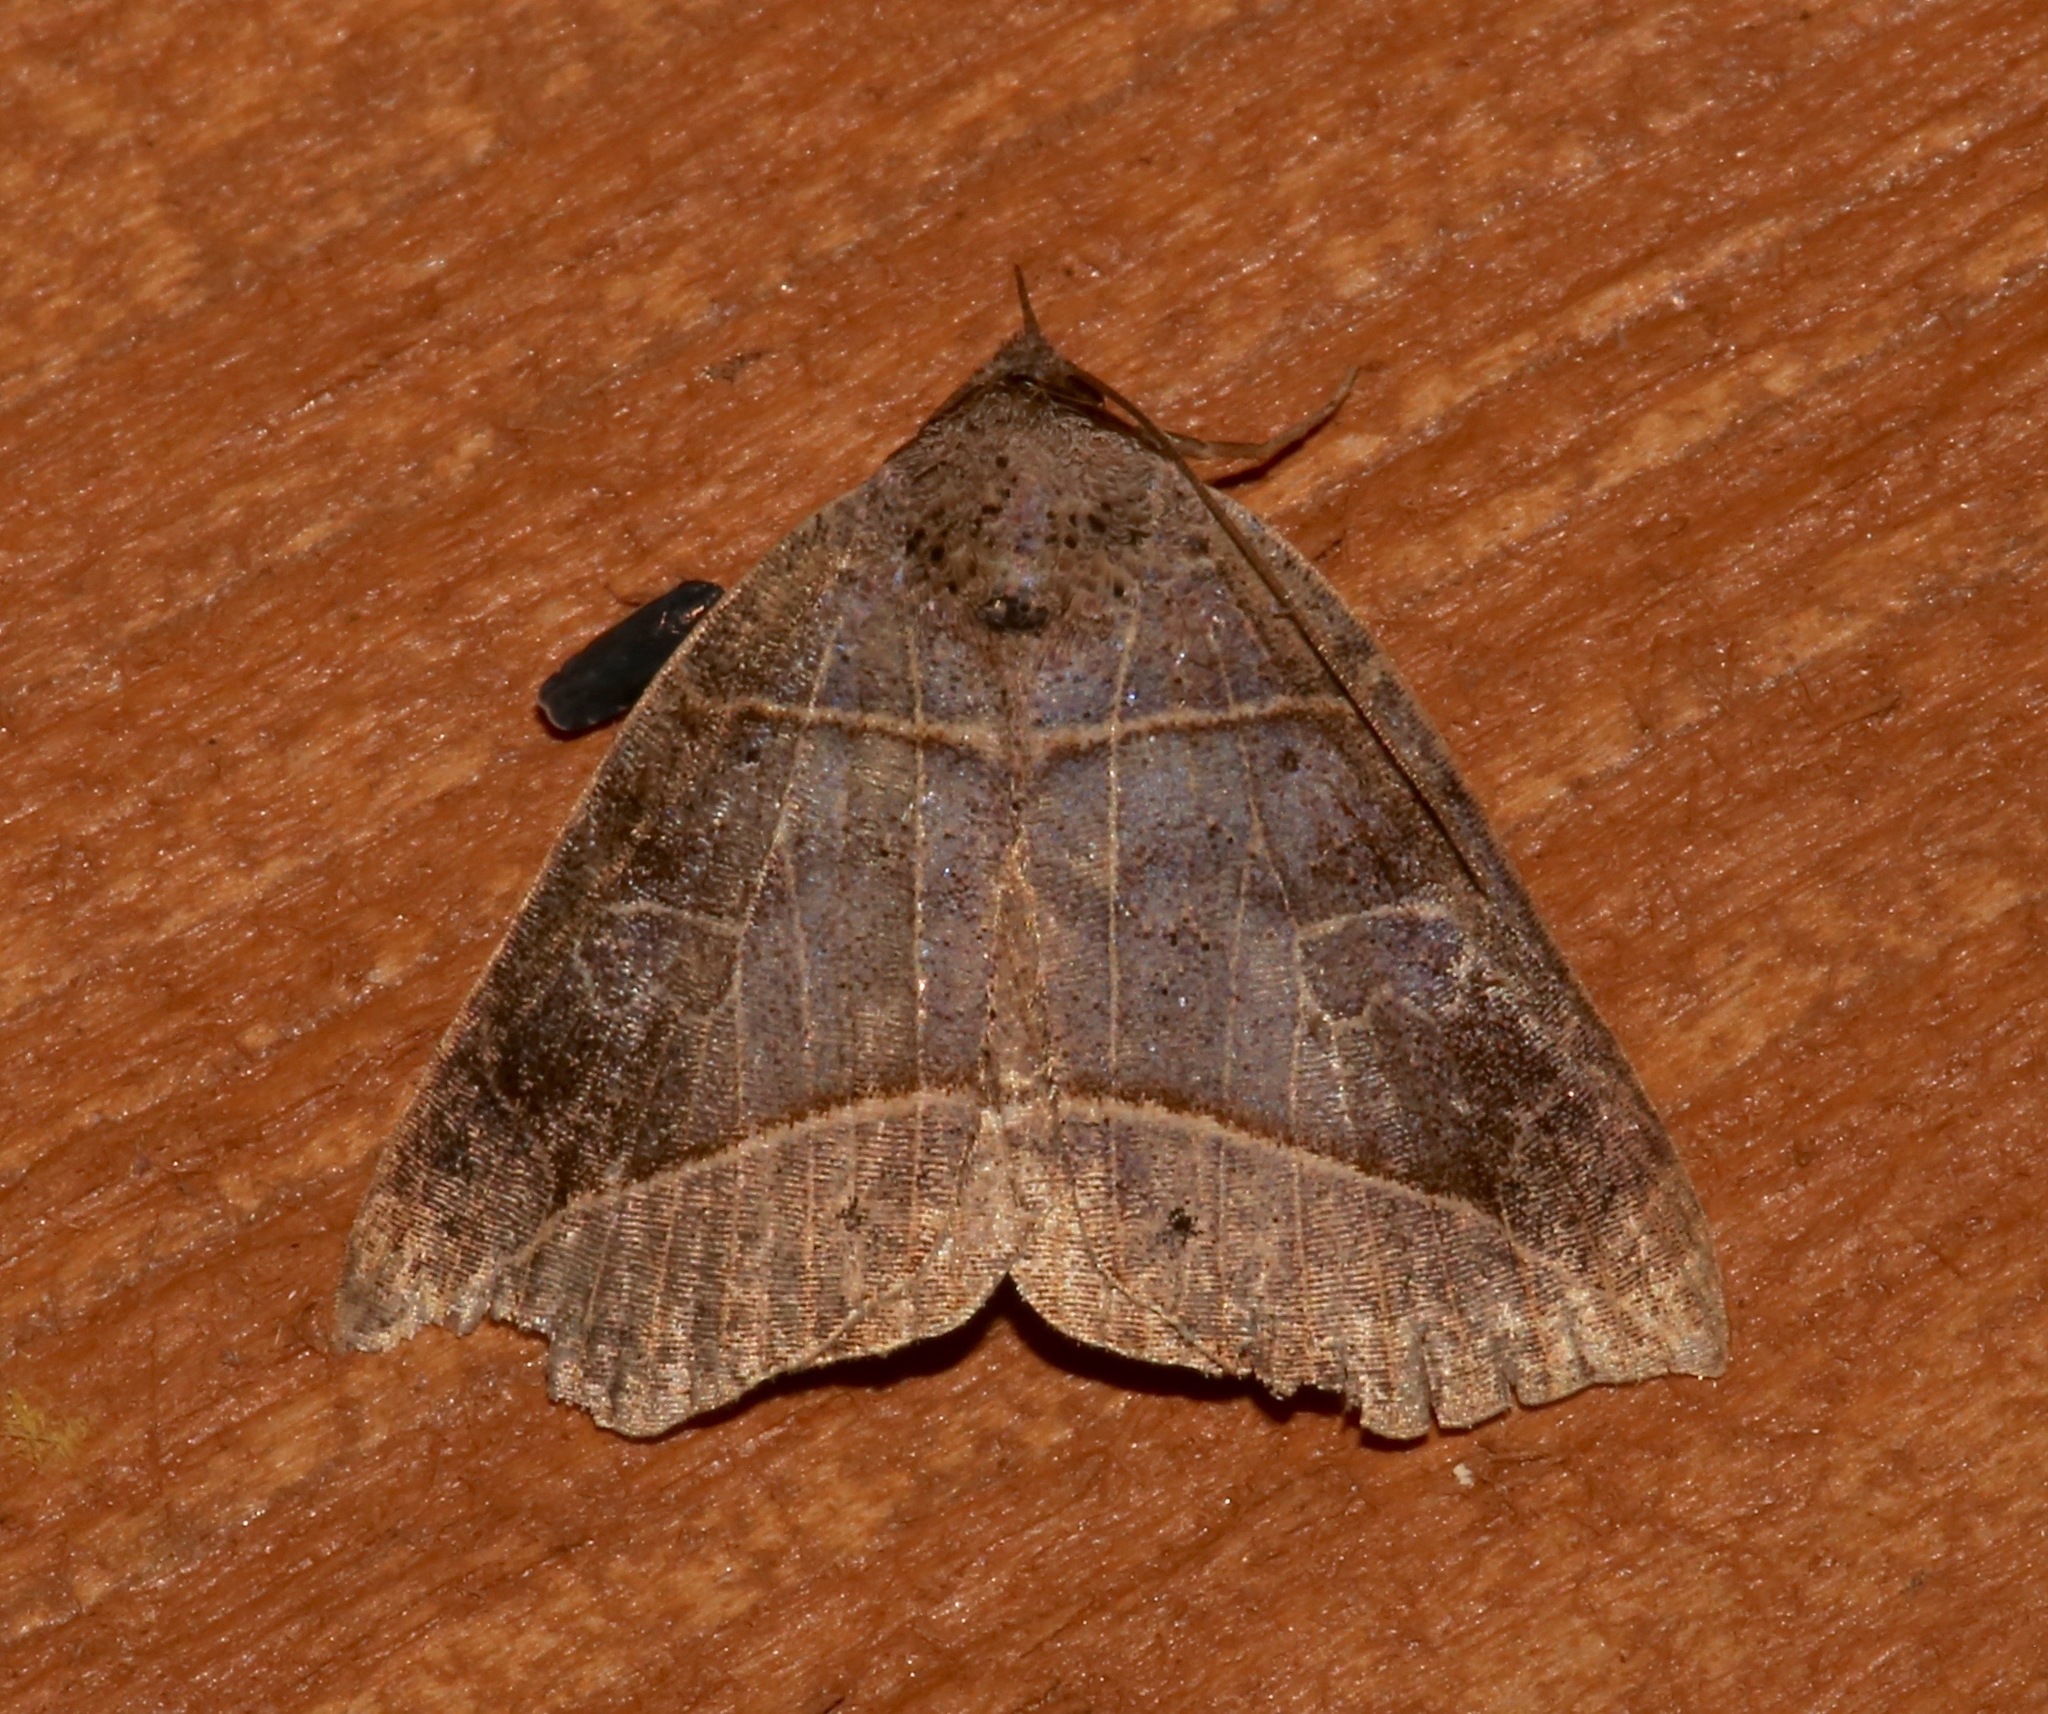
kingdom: Animalia
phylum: Arthropoda
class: Insecta
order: Lepidoptera
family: Erebidae
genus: Isogona
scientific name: Isogona tenuis
